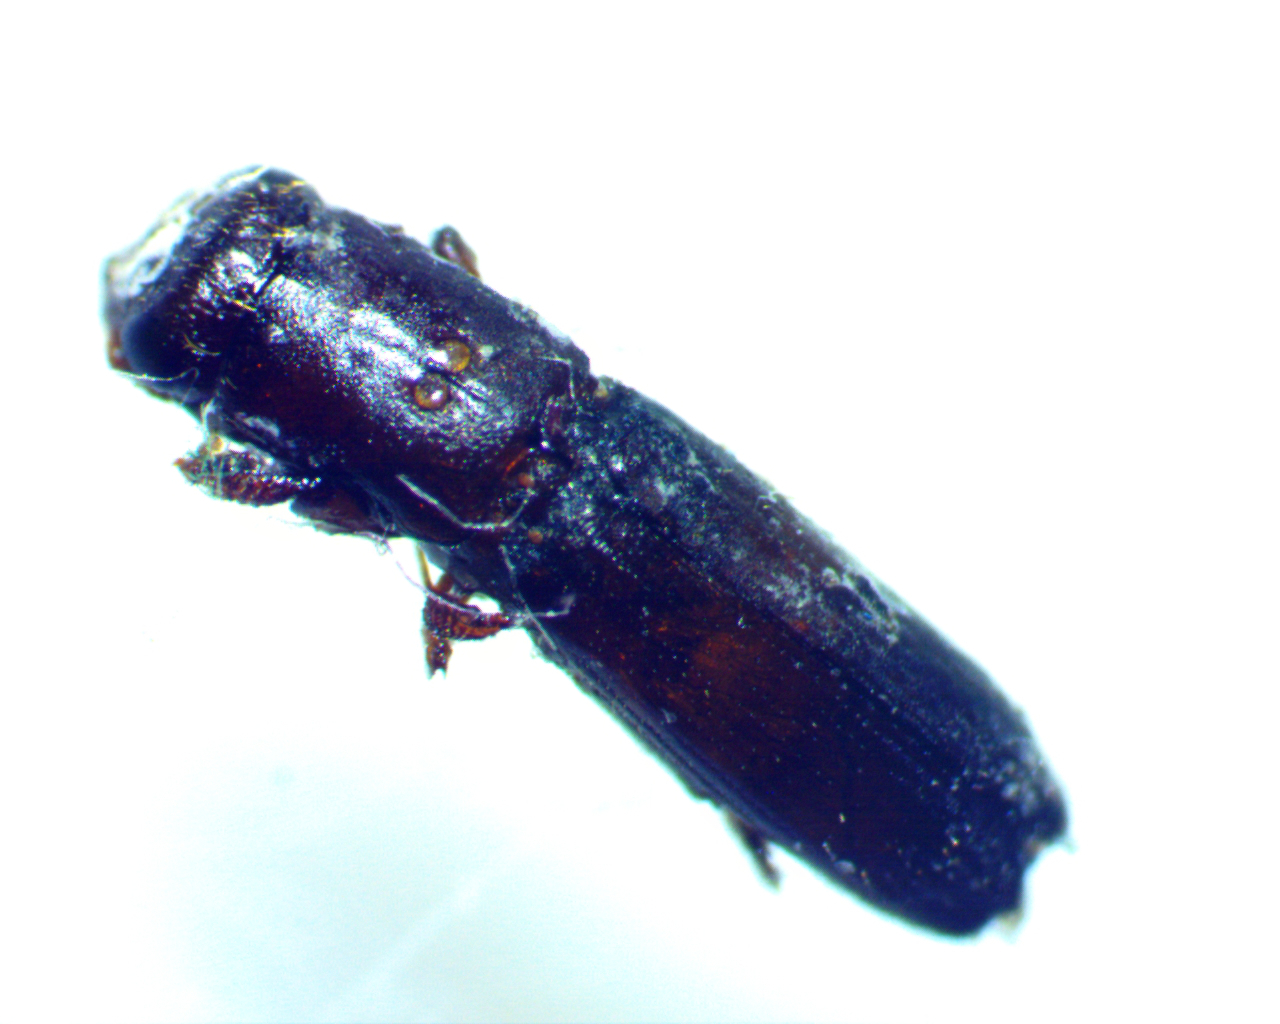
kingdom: Animalia
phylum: Arthropoda
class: Insecta
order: Coleoptera
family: Curculionidae
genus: Oxoplatypus
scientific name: Oxoplatypus quadridentatus
